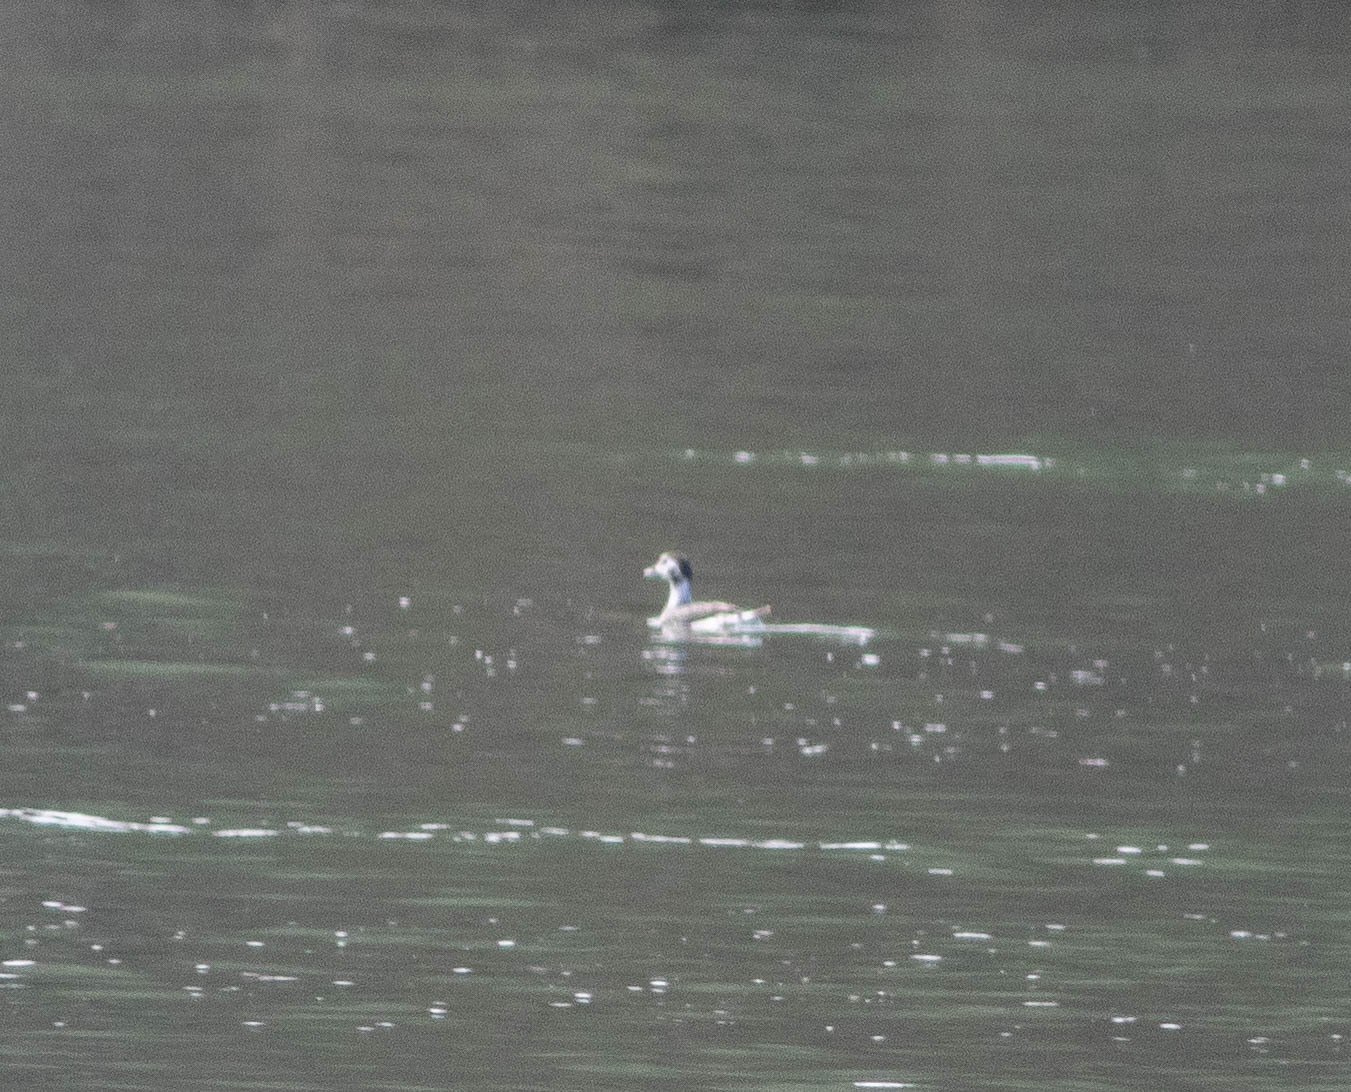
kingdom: Animalia
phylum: Chordata
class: Aves
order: Anseriformes
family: Anatidae
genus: Clangula
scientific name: Clangula hyemalis
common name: Long-tailed duck
